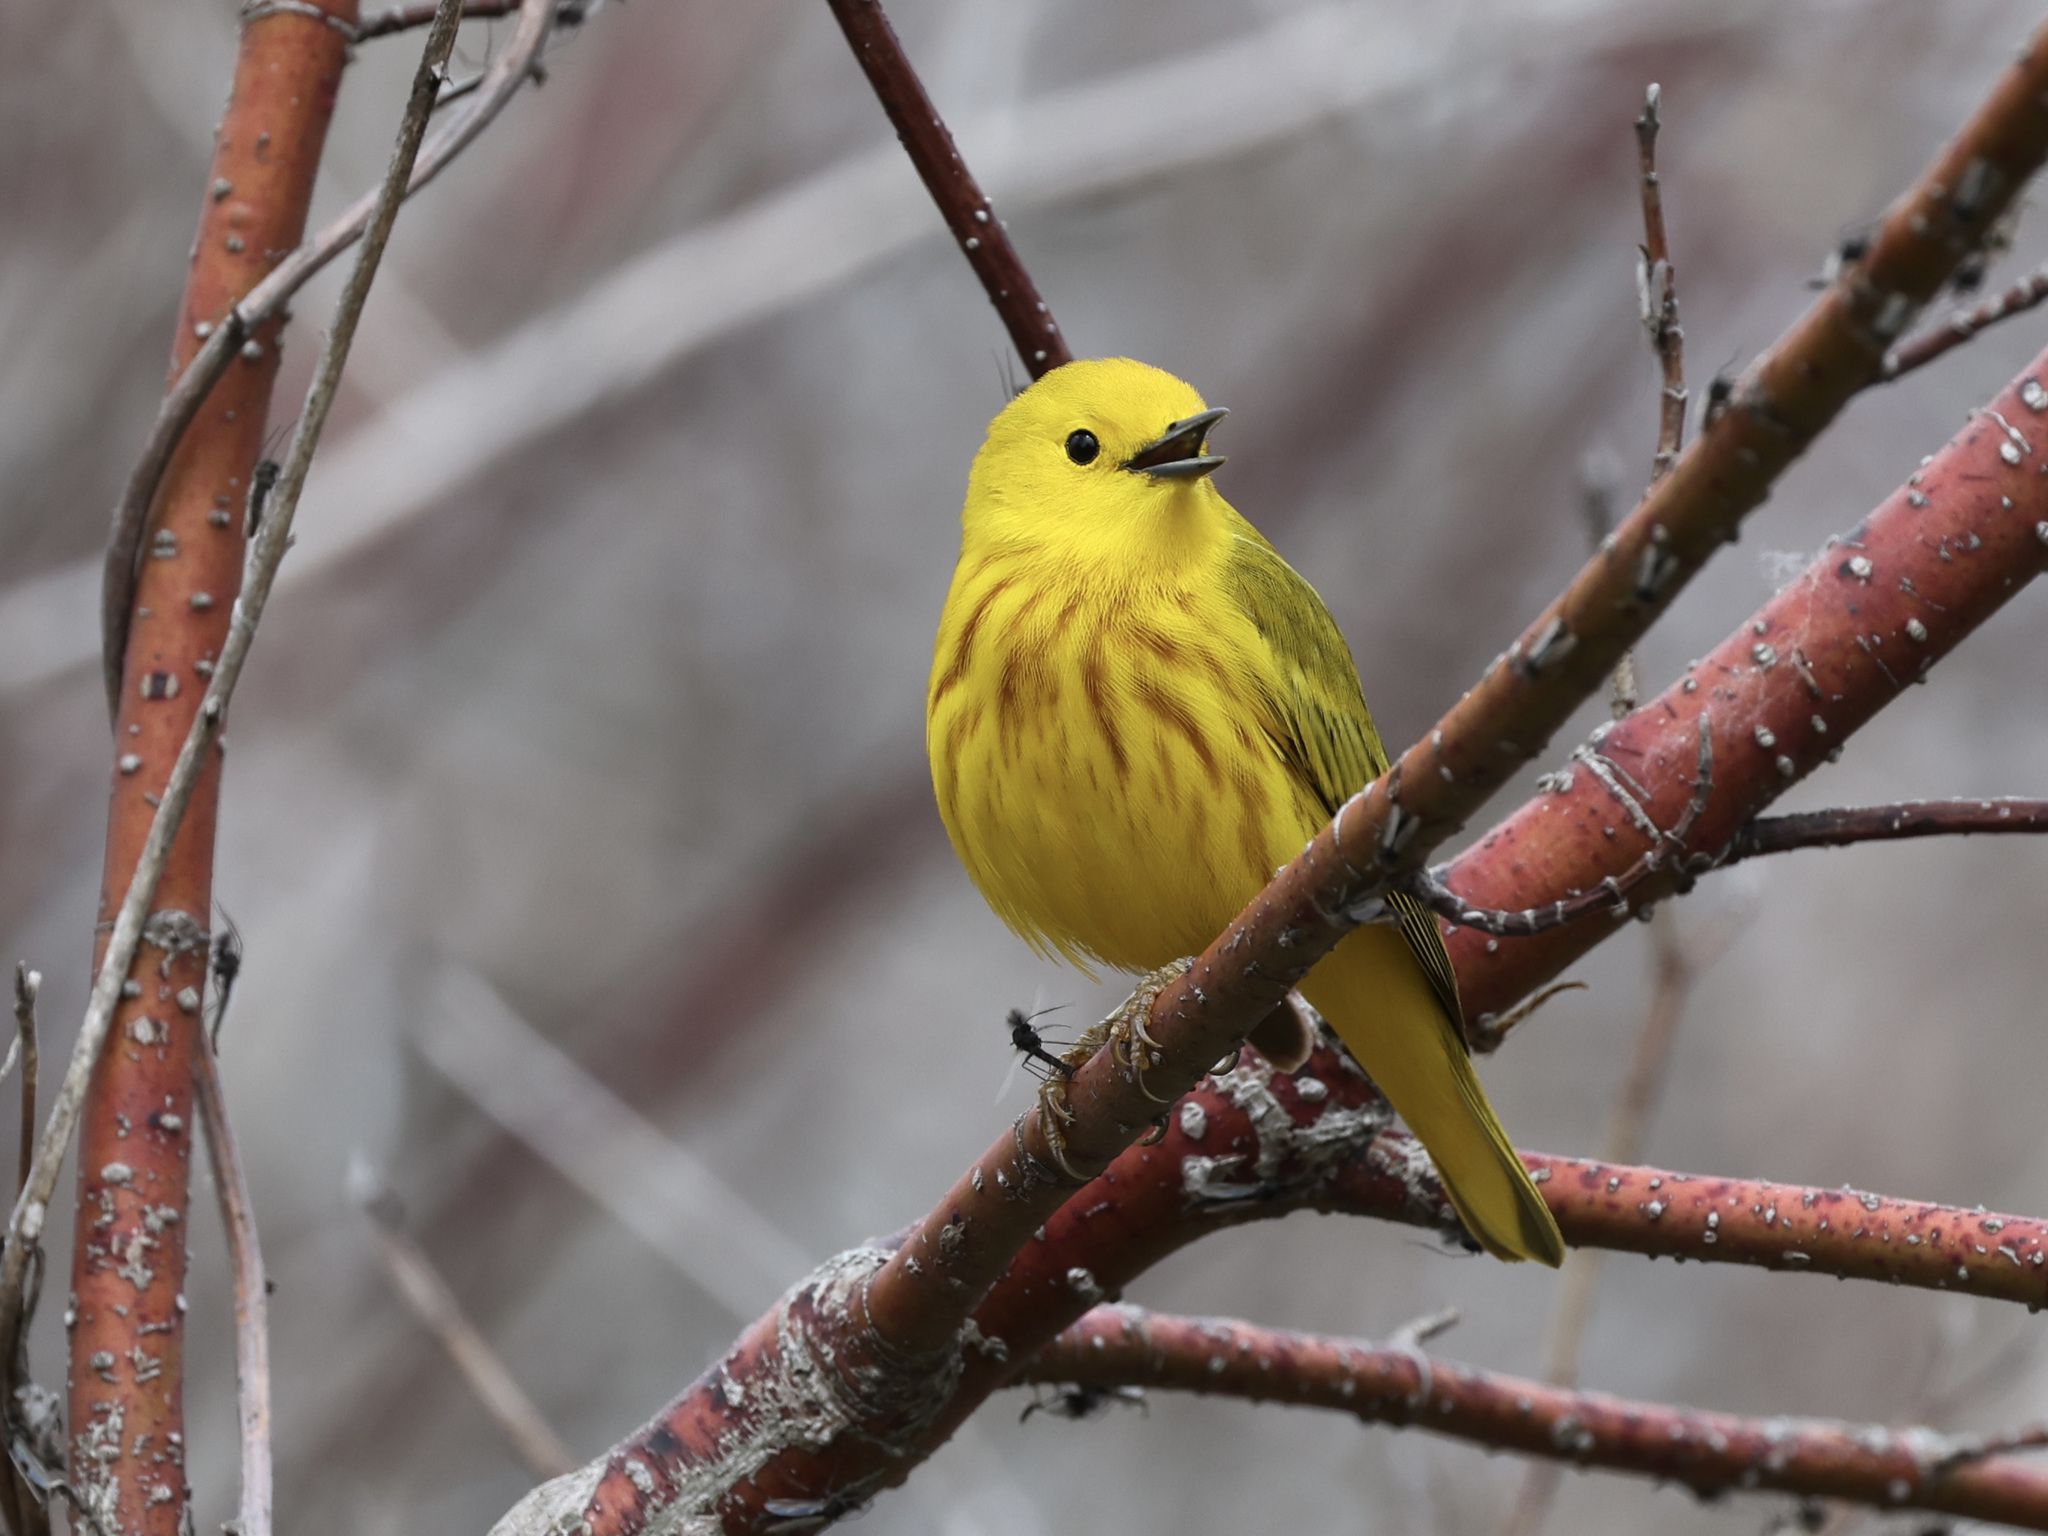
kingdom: Animalia
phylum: Chordata
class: Aves
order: Passeriformes
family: Parulidae
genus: Setophaga
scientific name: Setophaga petechia
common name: Yellow warbler
